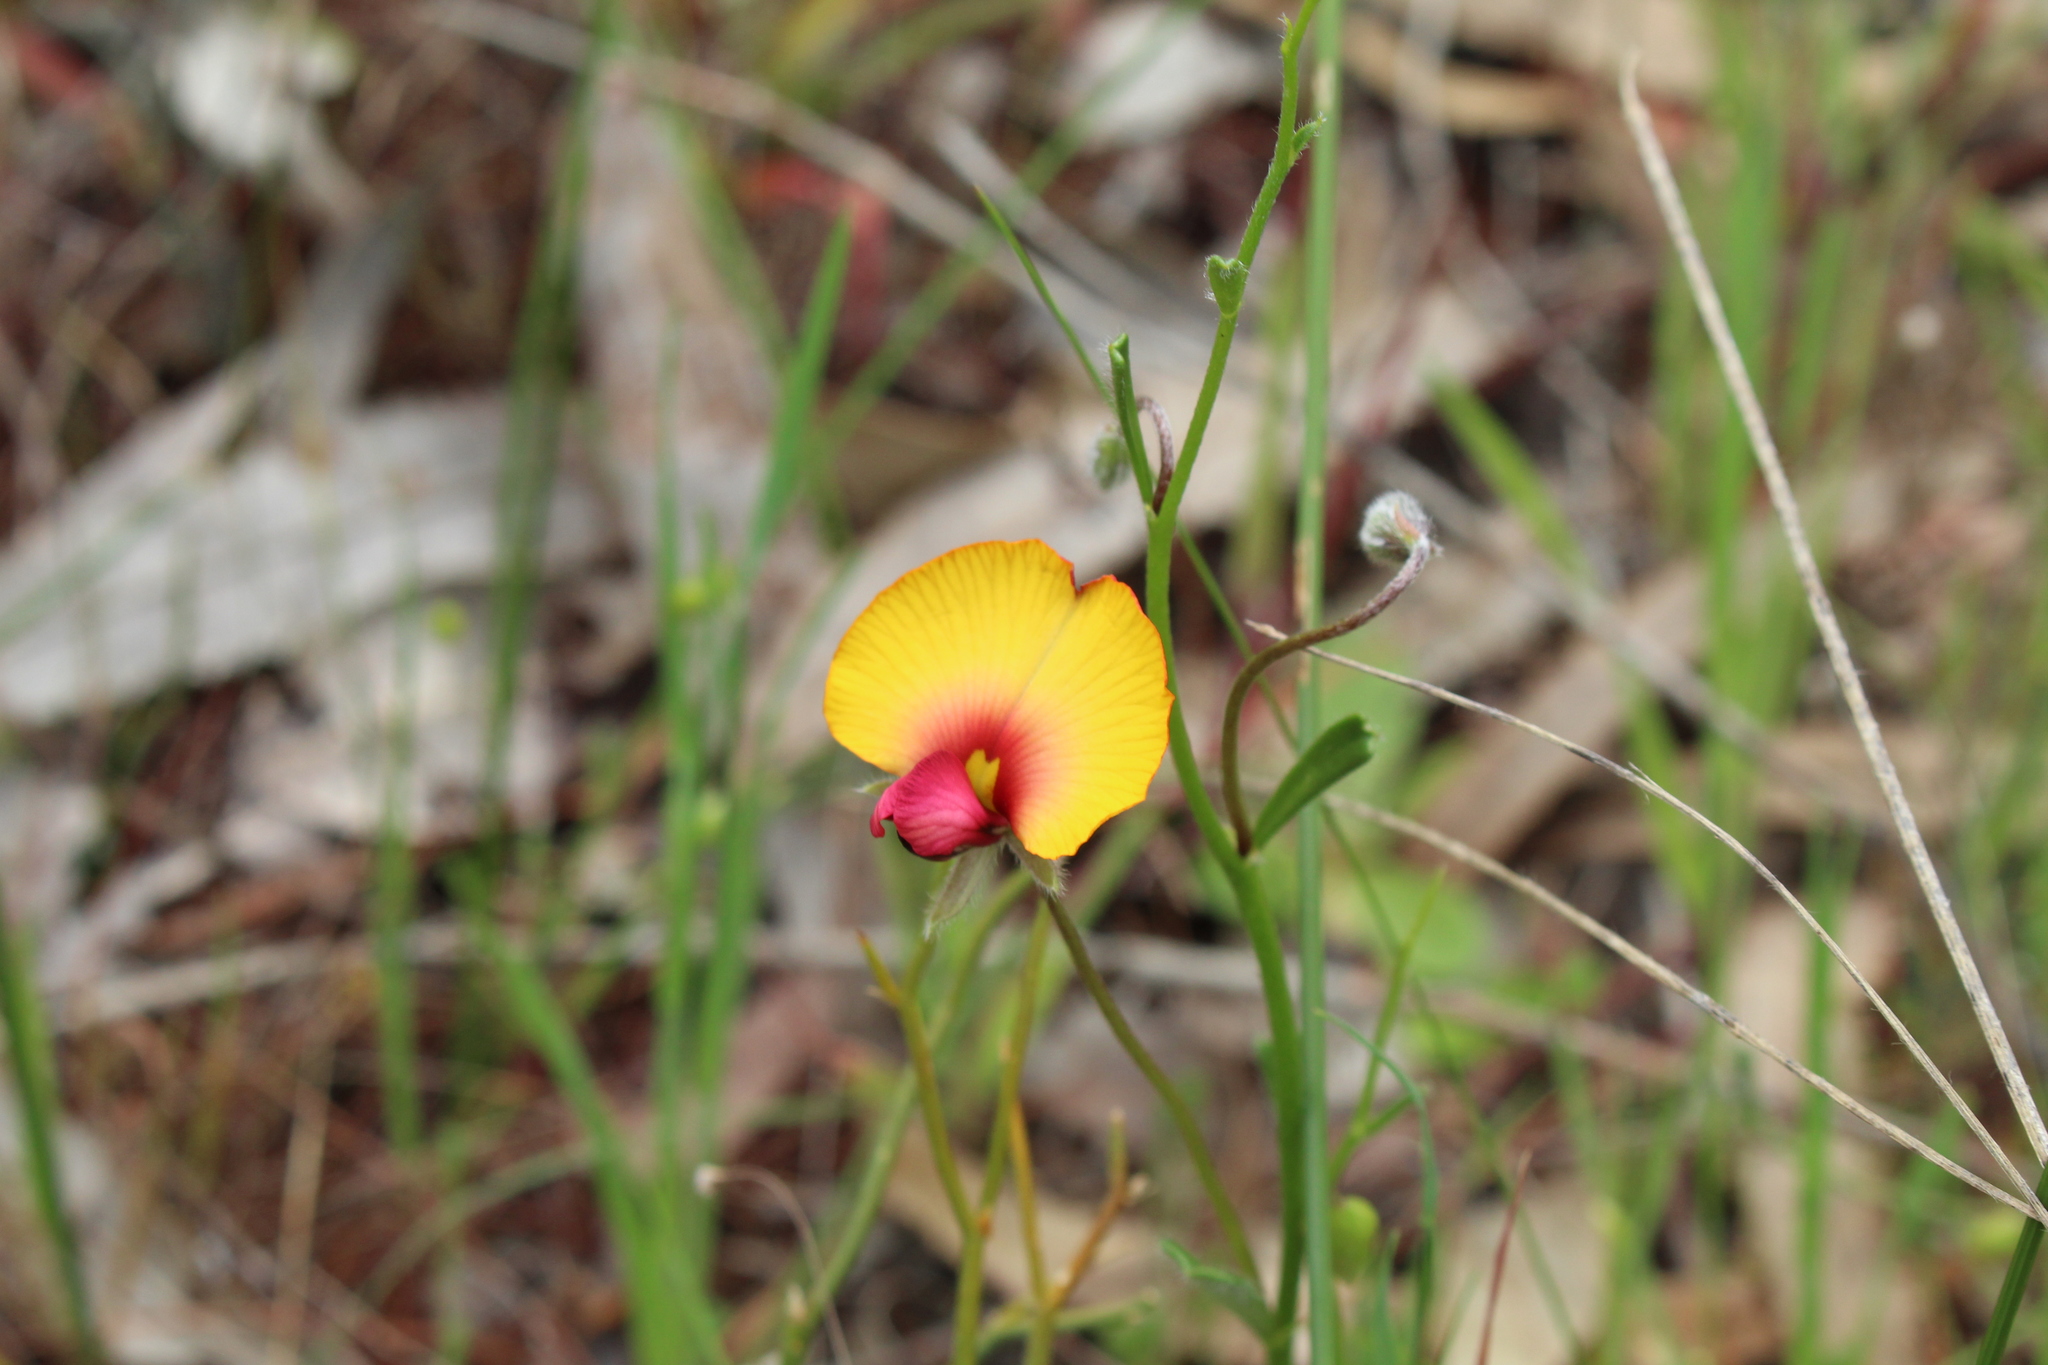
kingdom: Plantae
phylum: Tracheophyta
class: Magnoliopsida
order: Fabales
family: Fabaceae
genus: Isotropis
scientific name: Isotropis cuneifolia
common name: Granny bonnets
